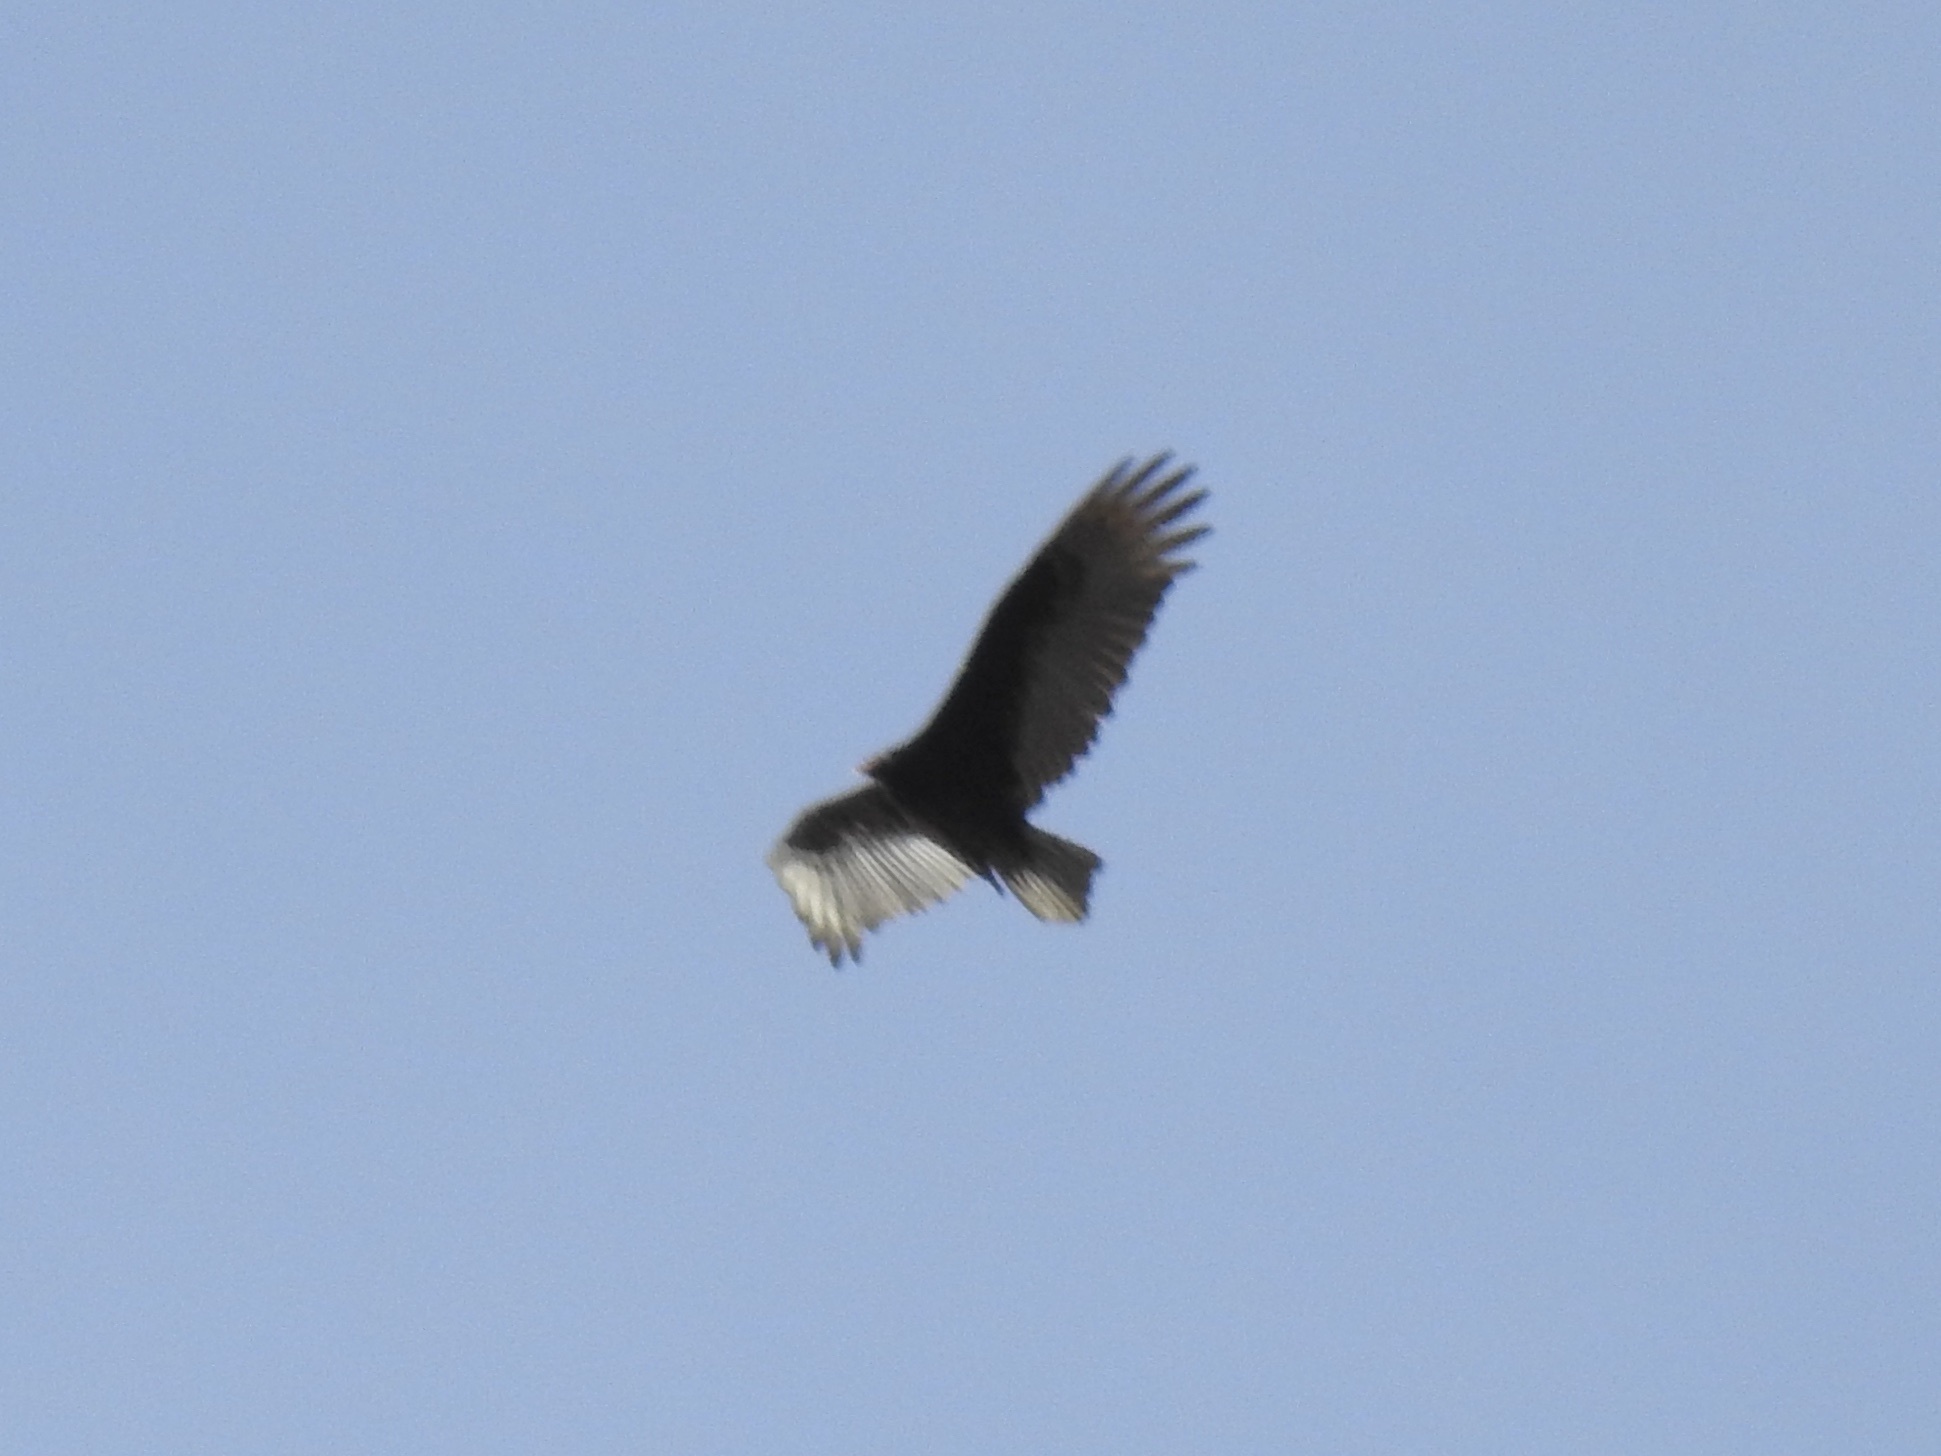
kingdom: Animalia
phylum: Chordata
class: Aves
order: Accipitriformes
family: Cathartidae
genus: Cathartes
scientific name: Cathartes aura
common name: Turkey vulture
